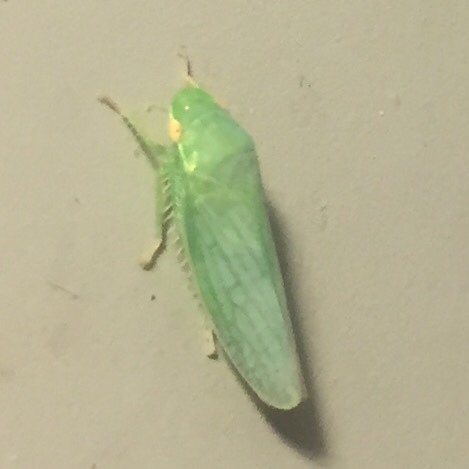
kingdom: Animalia
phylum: Arthropoda
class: Insecta
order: Hemiptera
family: Cicadellidae
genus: Gyponana
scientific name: Gyponana cacumina
